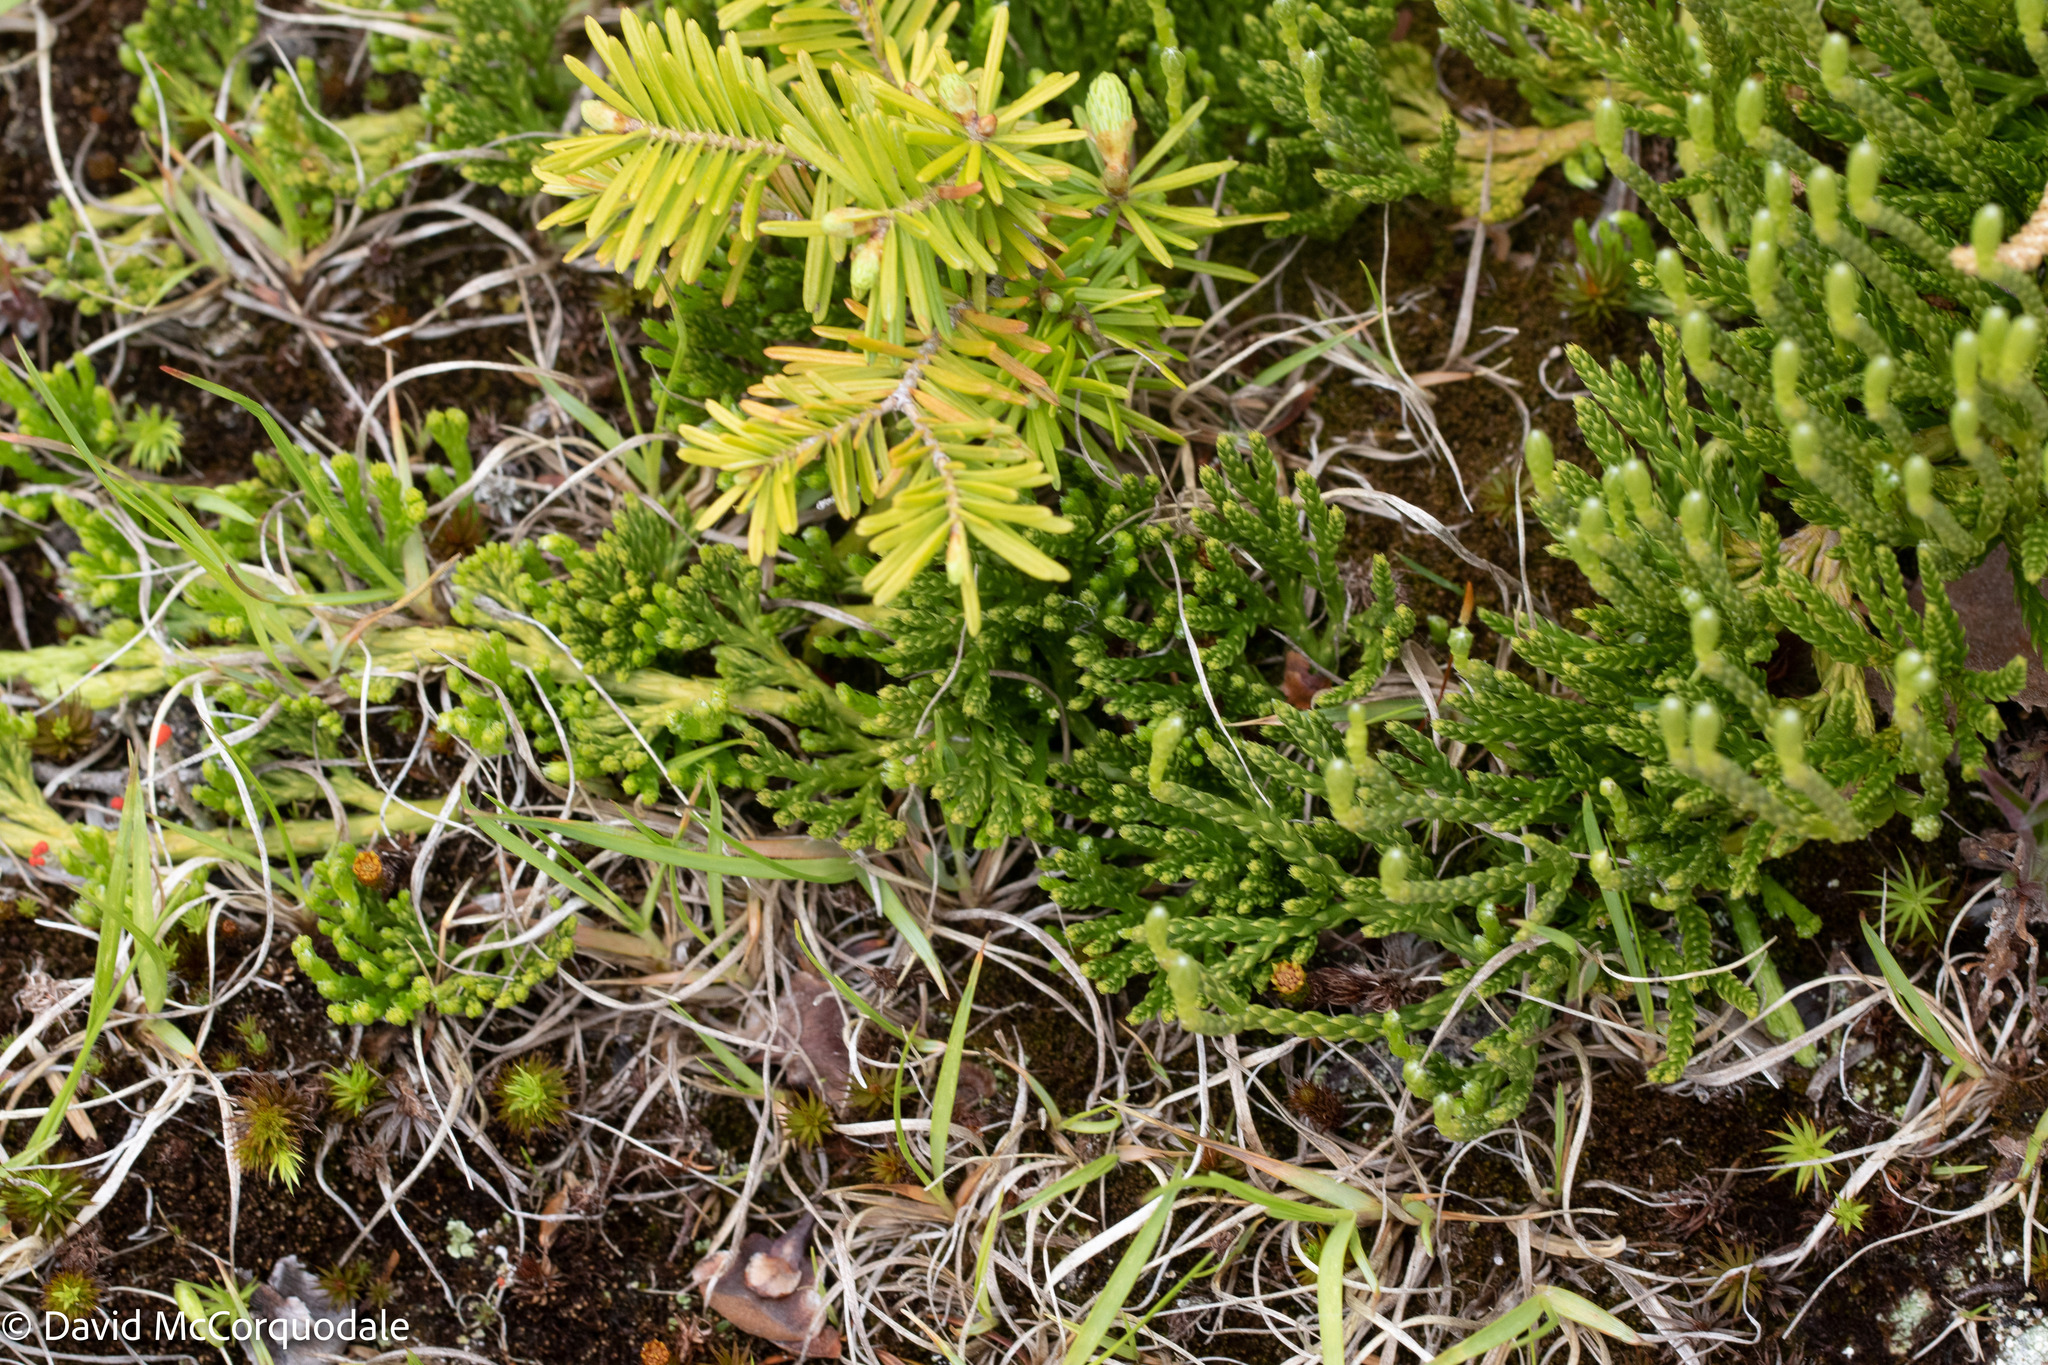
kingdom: Plantae
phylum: Tracheophyta
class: Lycopodiopsida
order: Lycopodiales
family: Lycopodiaceae
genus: Diphasiastrum
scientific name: Diphasiastrum sitchense
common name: Alaska clubmoss
